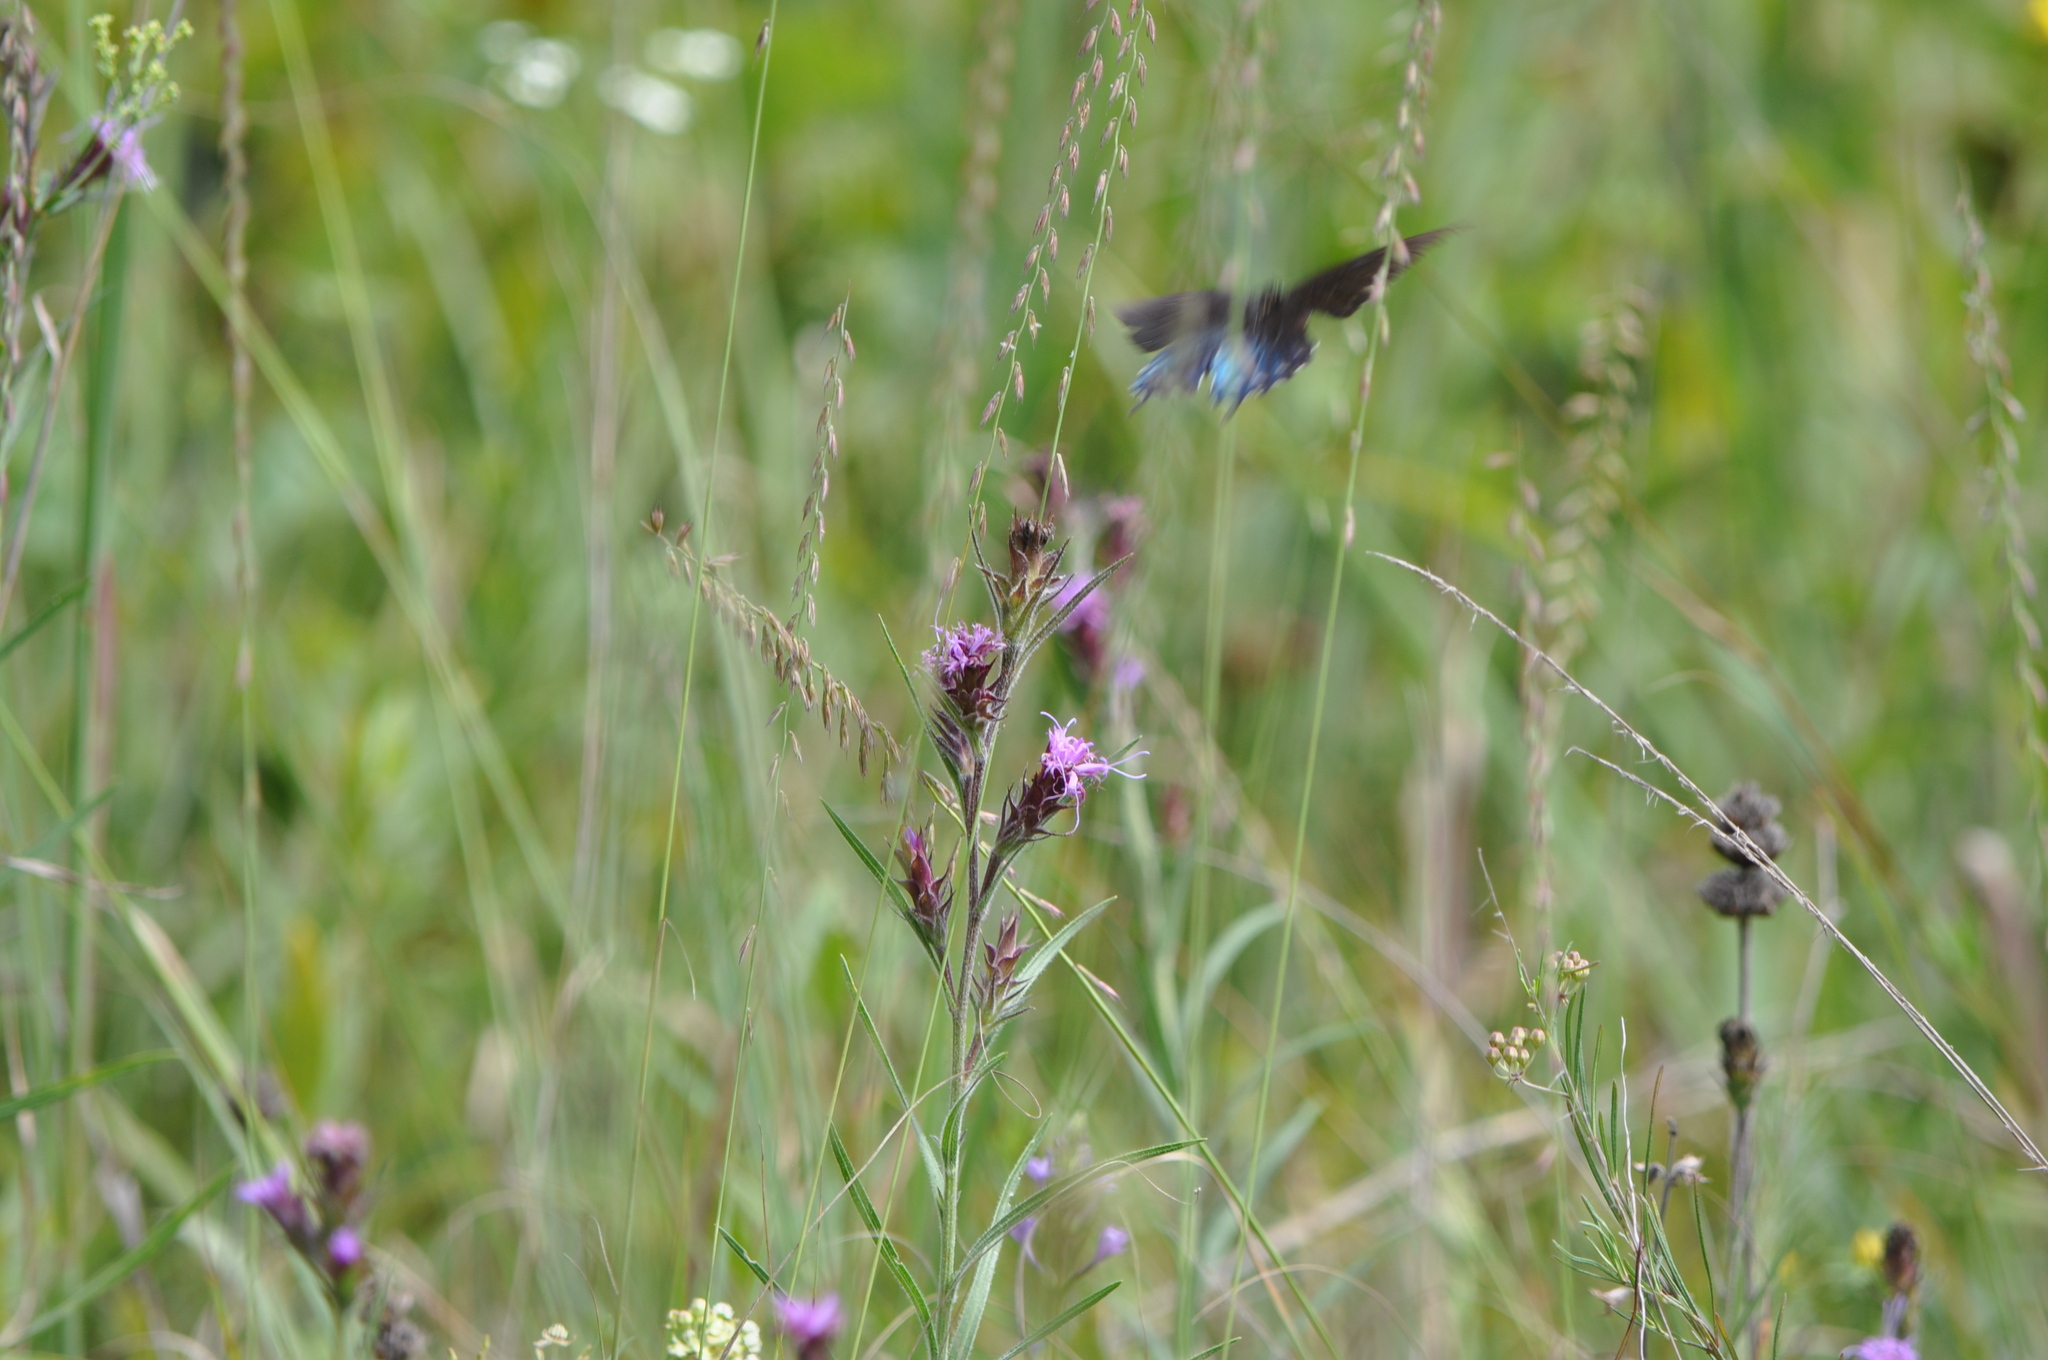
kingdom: Animalia
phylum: Arthropoda
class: Insecta
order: Lepidoptera
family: Papilionidae
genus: Battus
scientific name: Battus philenor
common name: Pipevine swallowtail
